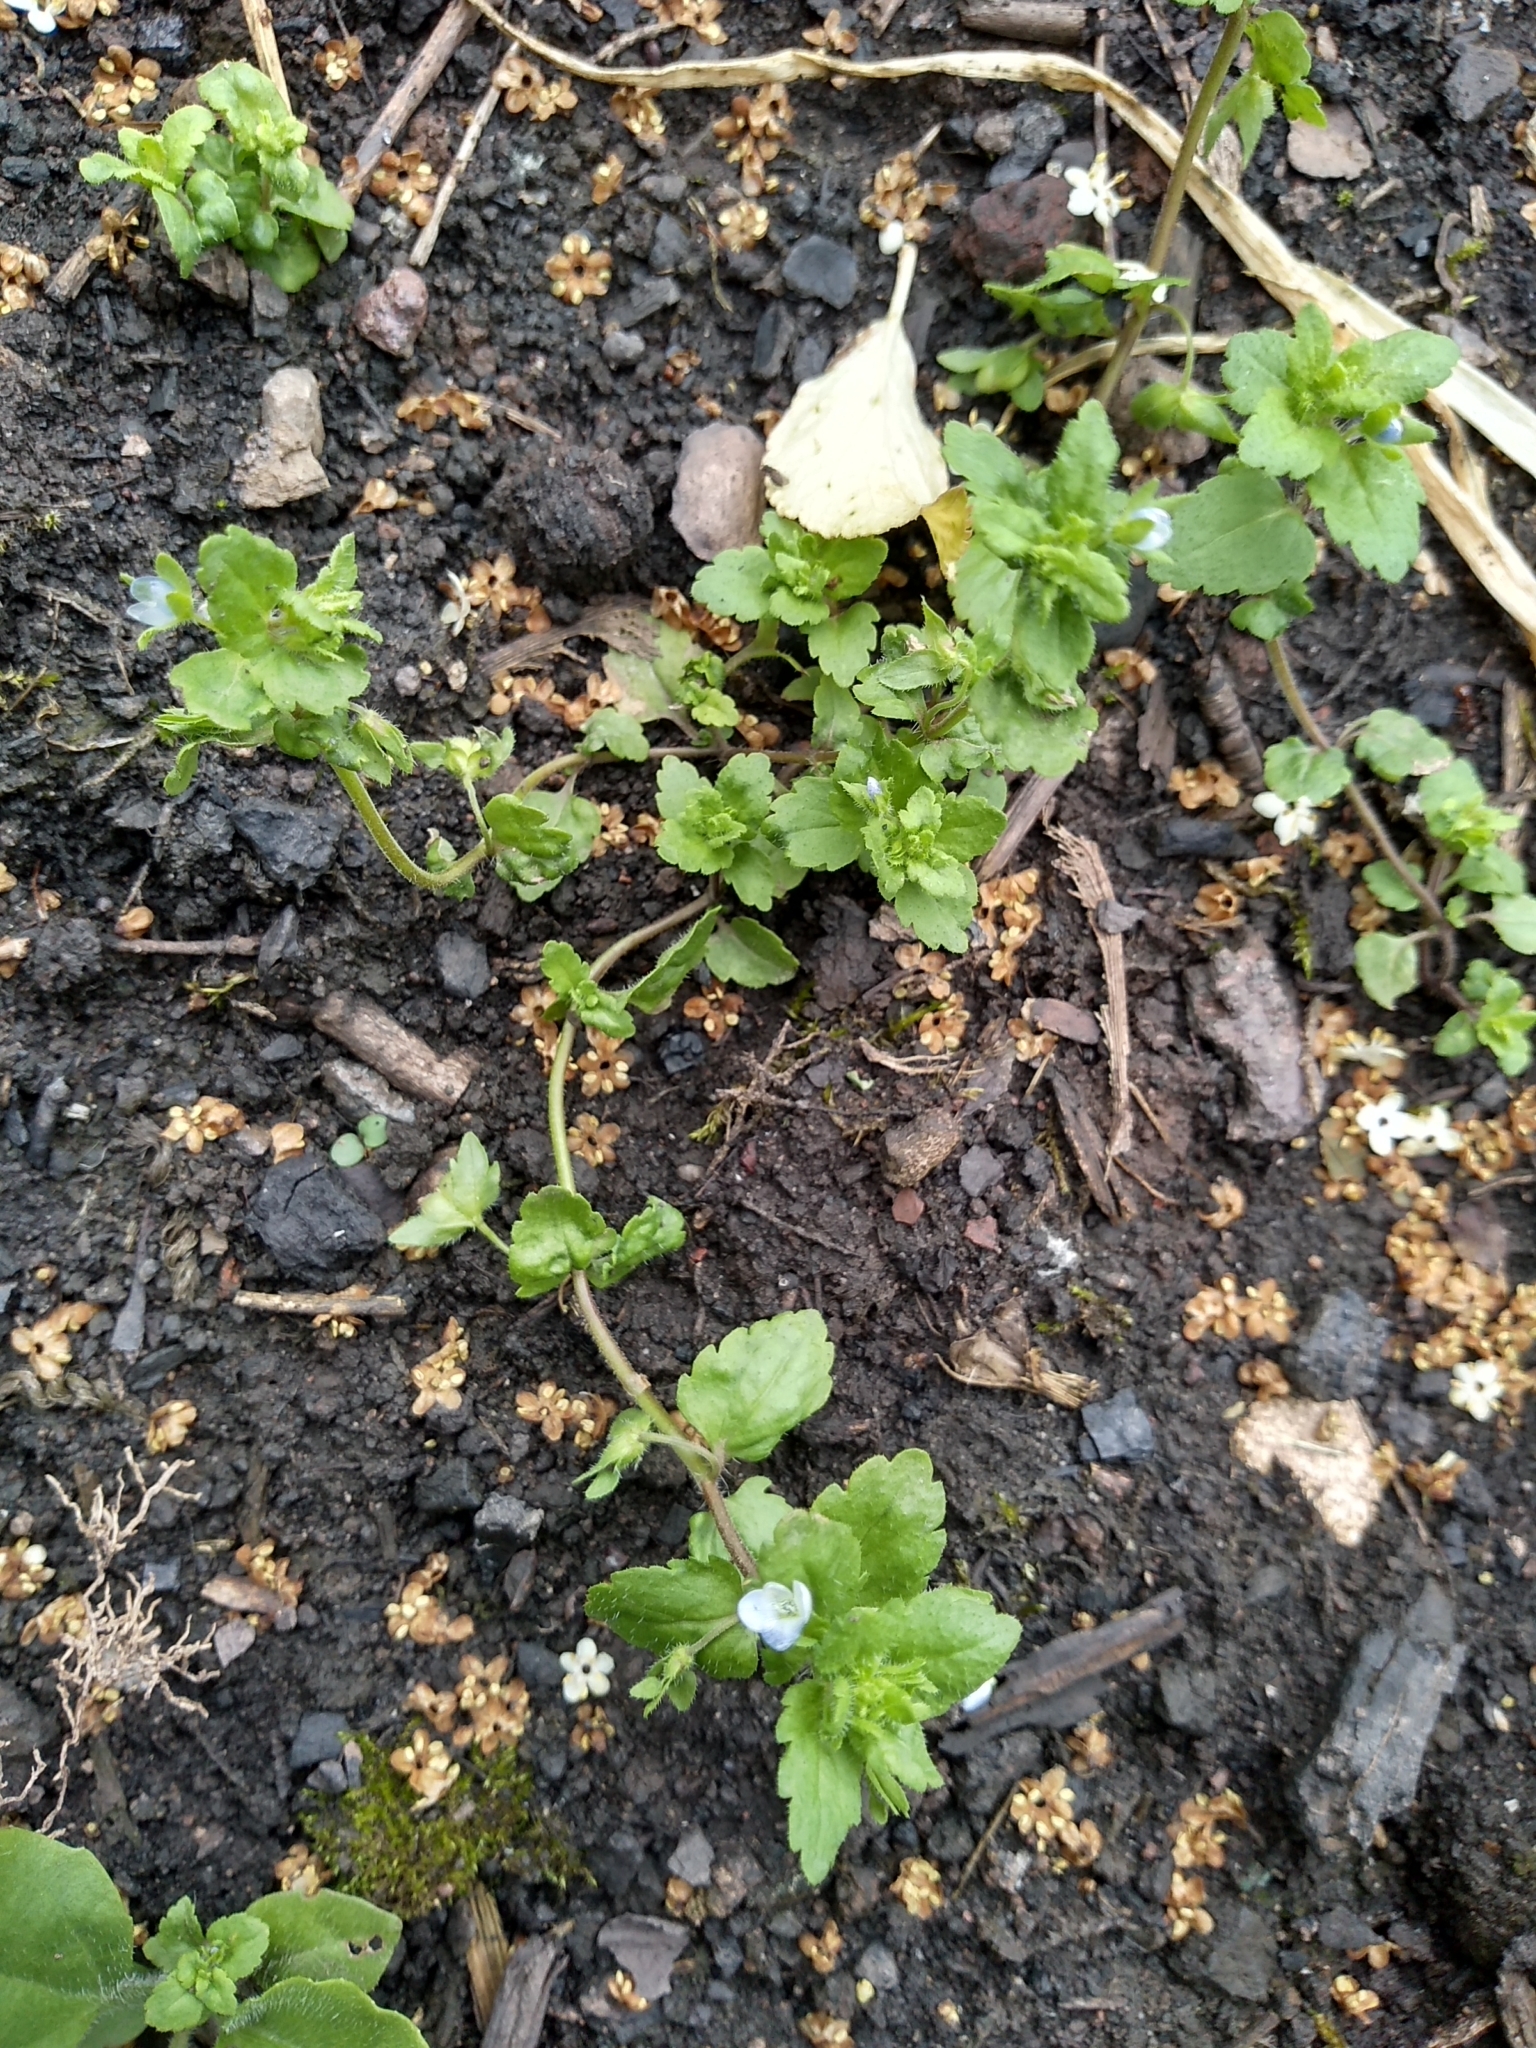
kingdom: Plantae
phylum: Tracheophyta
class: Magnoliopsida
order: Lamiales
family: Plantaginaceae
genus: Veronica
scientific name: Veronica agrestis
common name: Green field-speedwell
